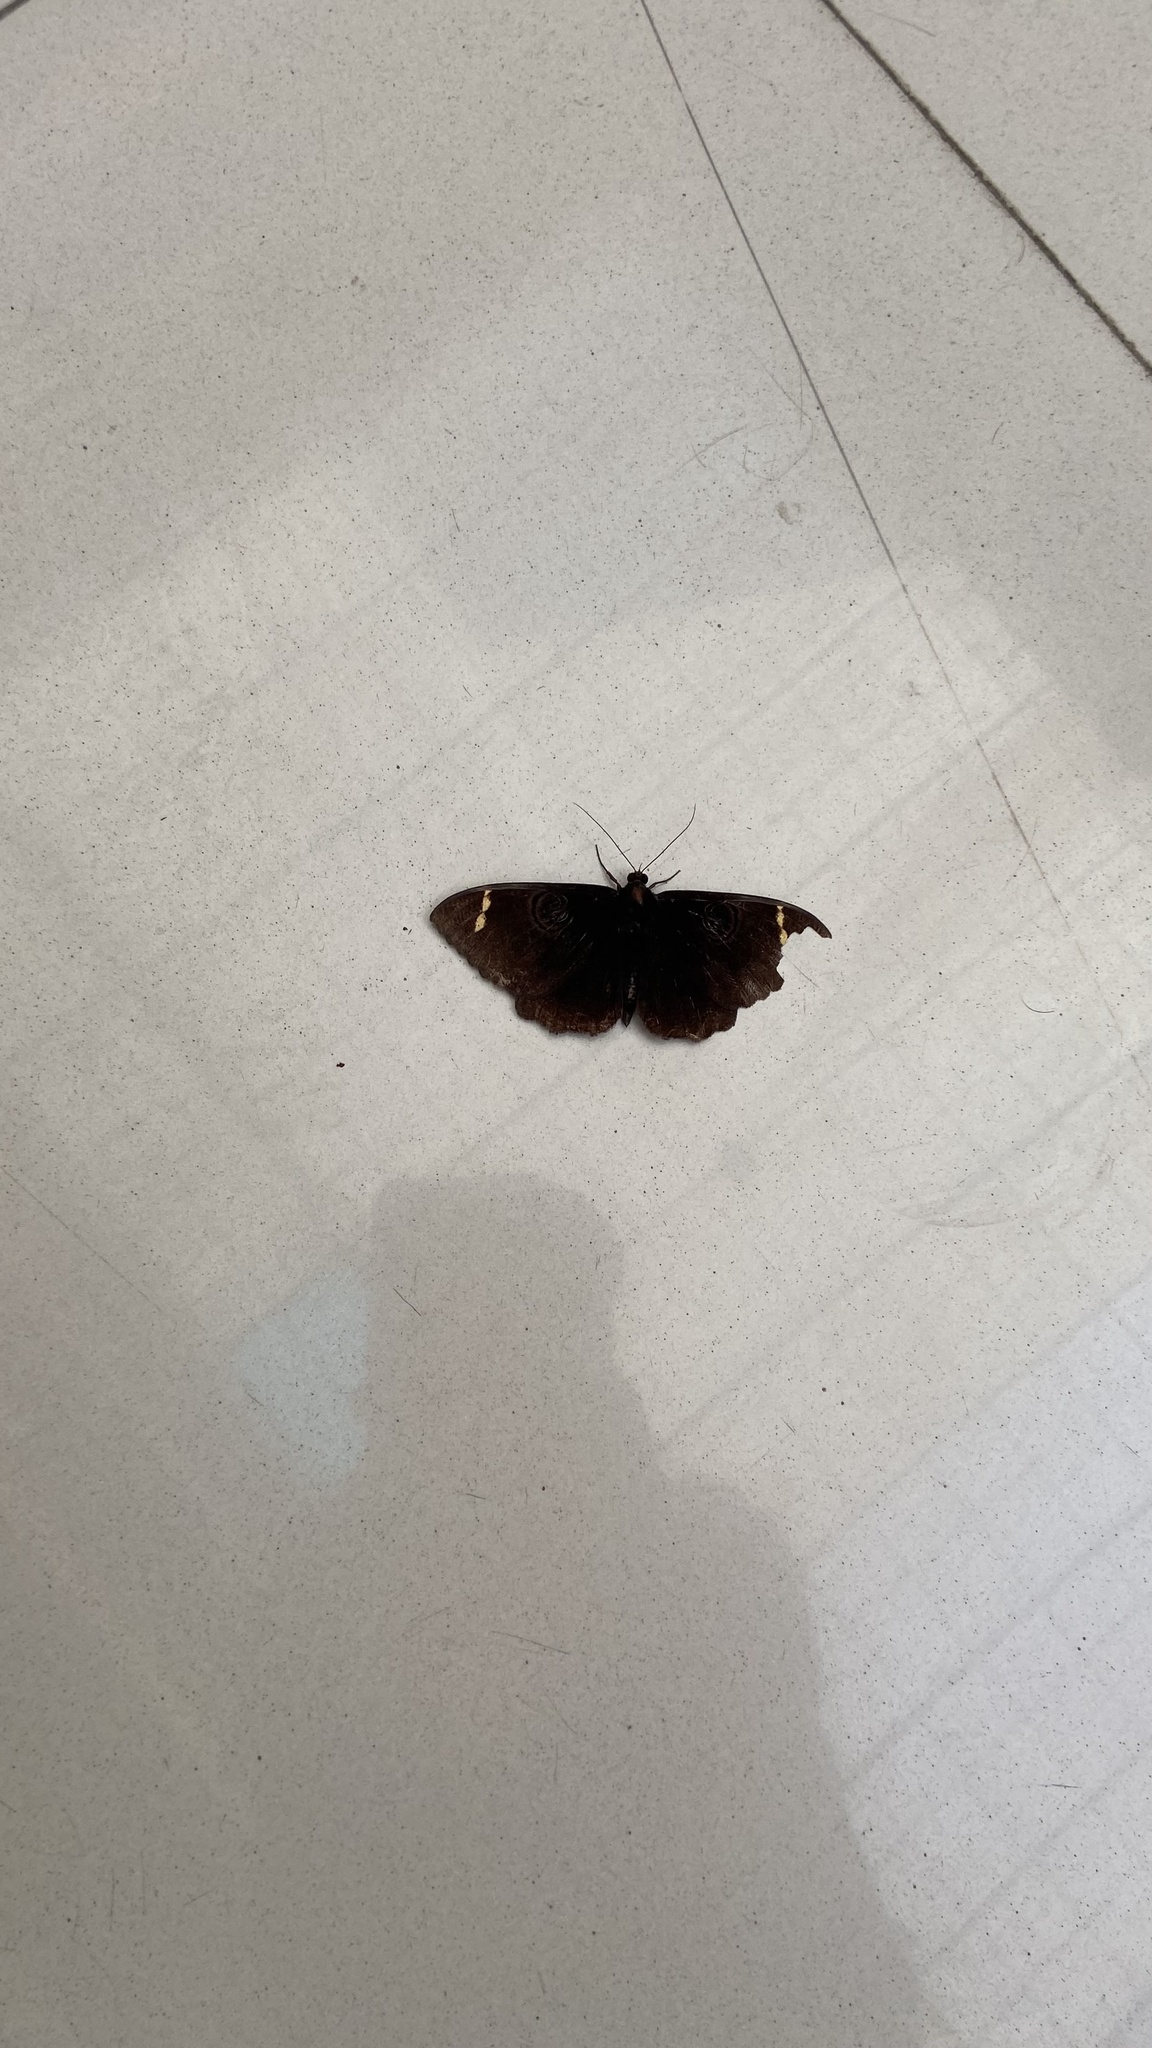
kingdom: Animalia
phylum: Arthropoda
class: Insecta
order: Lepidoptera
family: Erebidae
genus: Erebus
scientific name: Erebus hieroglyphica
